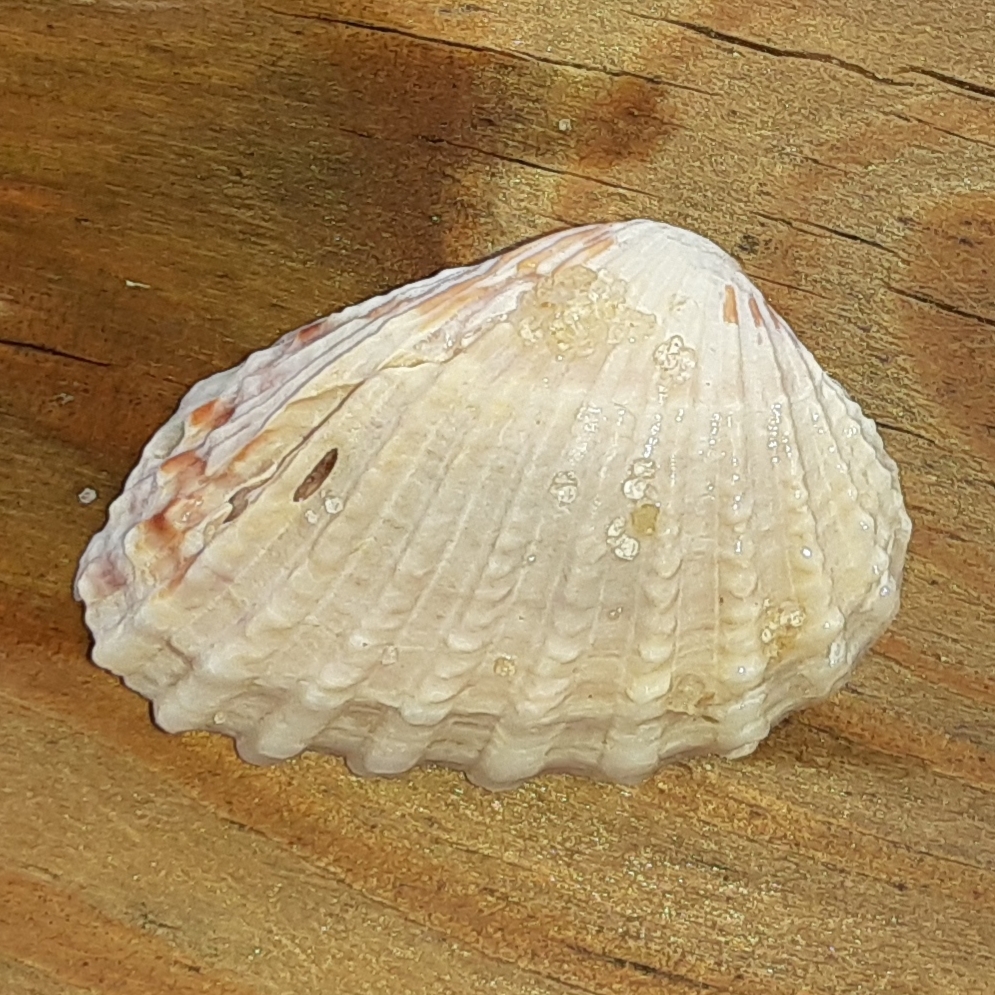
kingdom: Animalia
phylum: Mollusca
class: Bivalvia
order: Carditida
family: Carditidae
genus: Cardites
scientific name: Cardites floridanus
